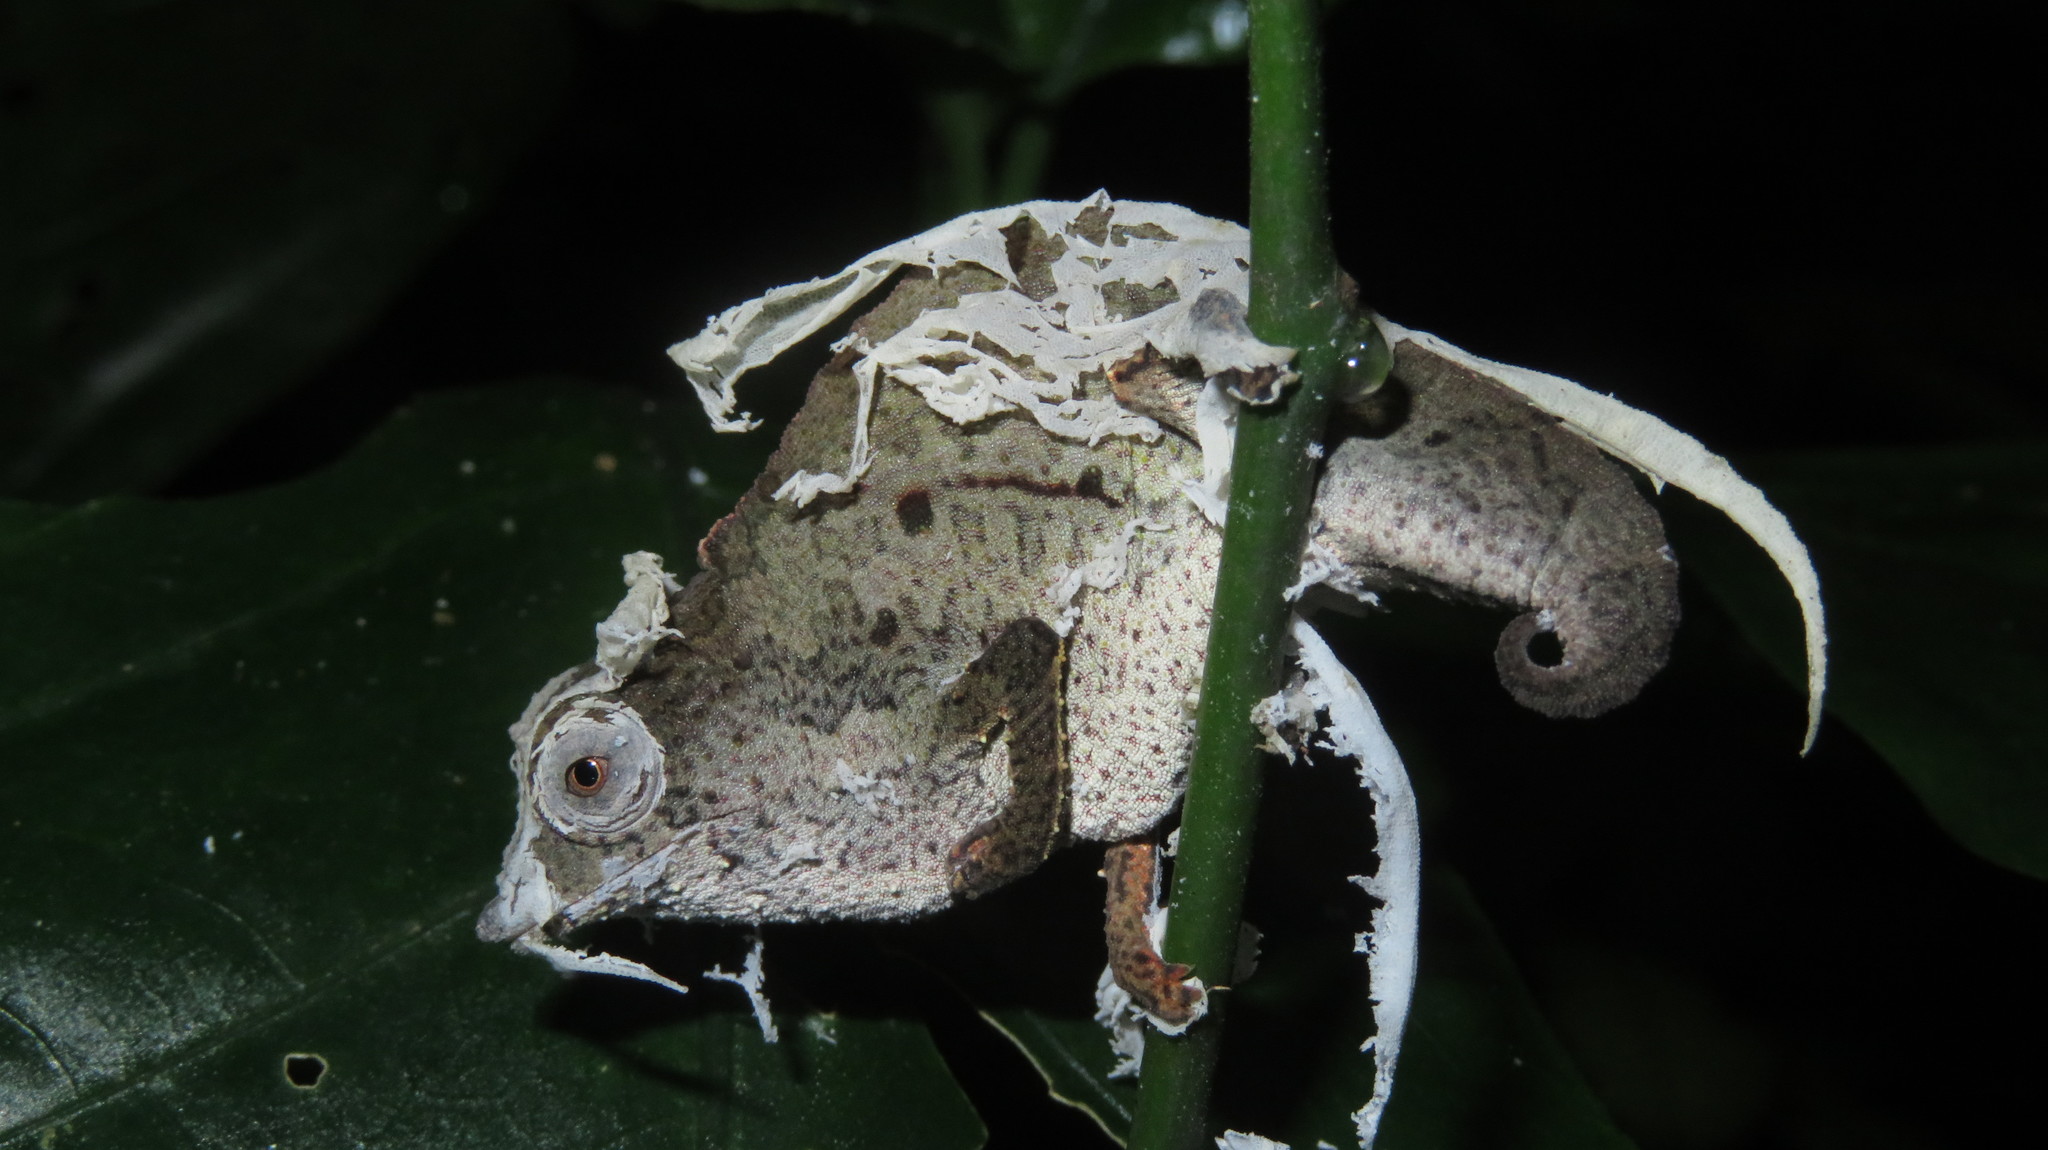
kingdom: Animalia
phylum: Chordata
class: Squamata
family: Chamaeleonidae
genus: Rhampholeon
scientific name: Rhampholeon temporalis
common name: Usambara stumptail chameleon
